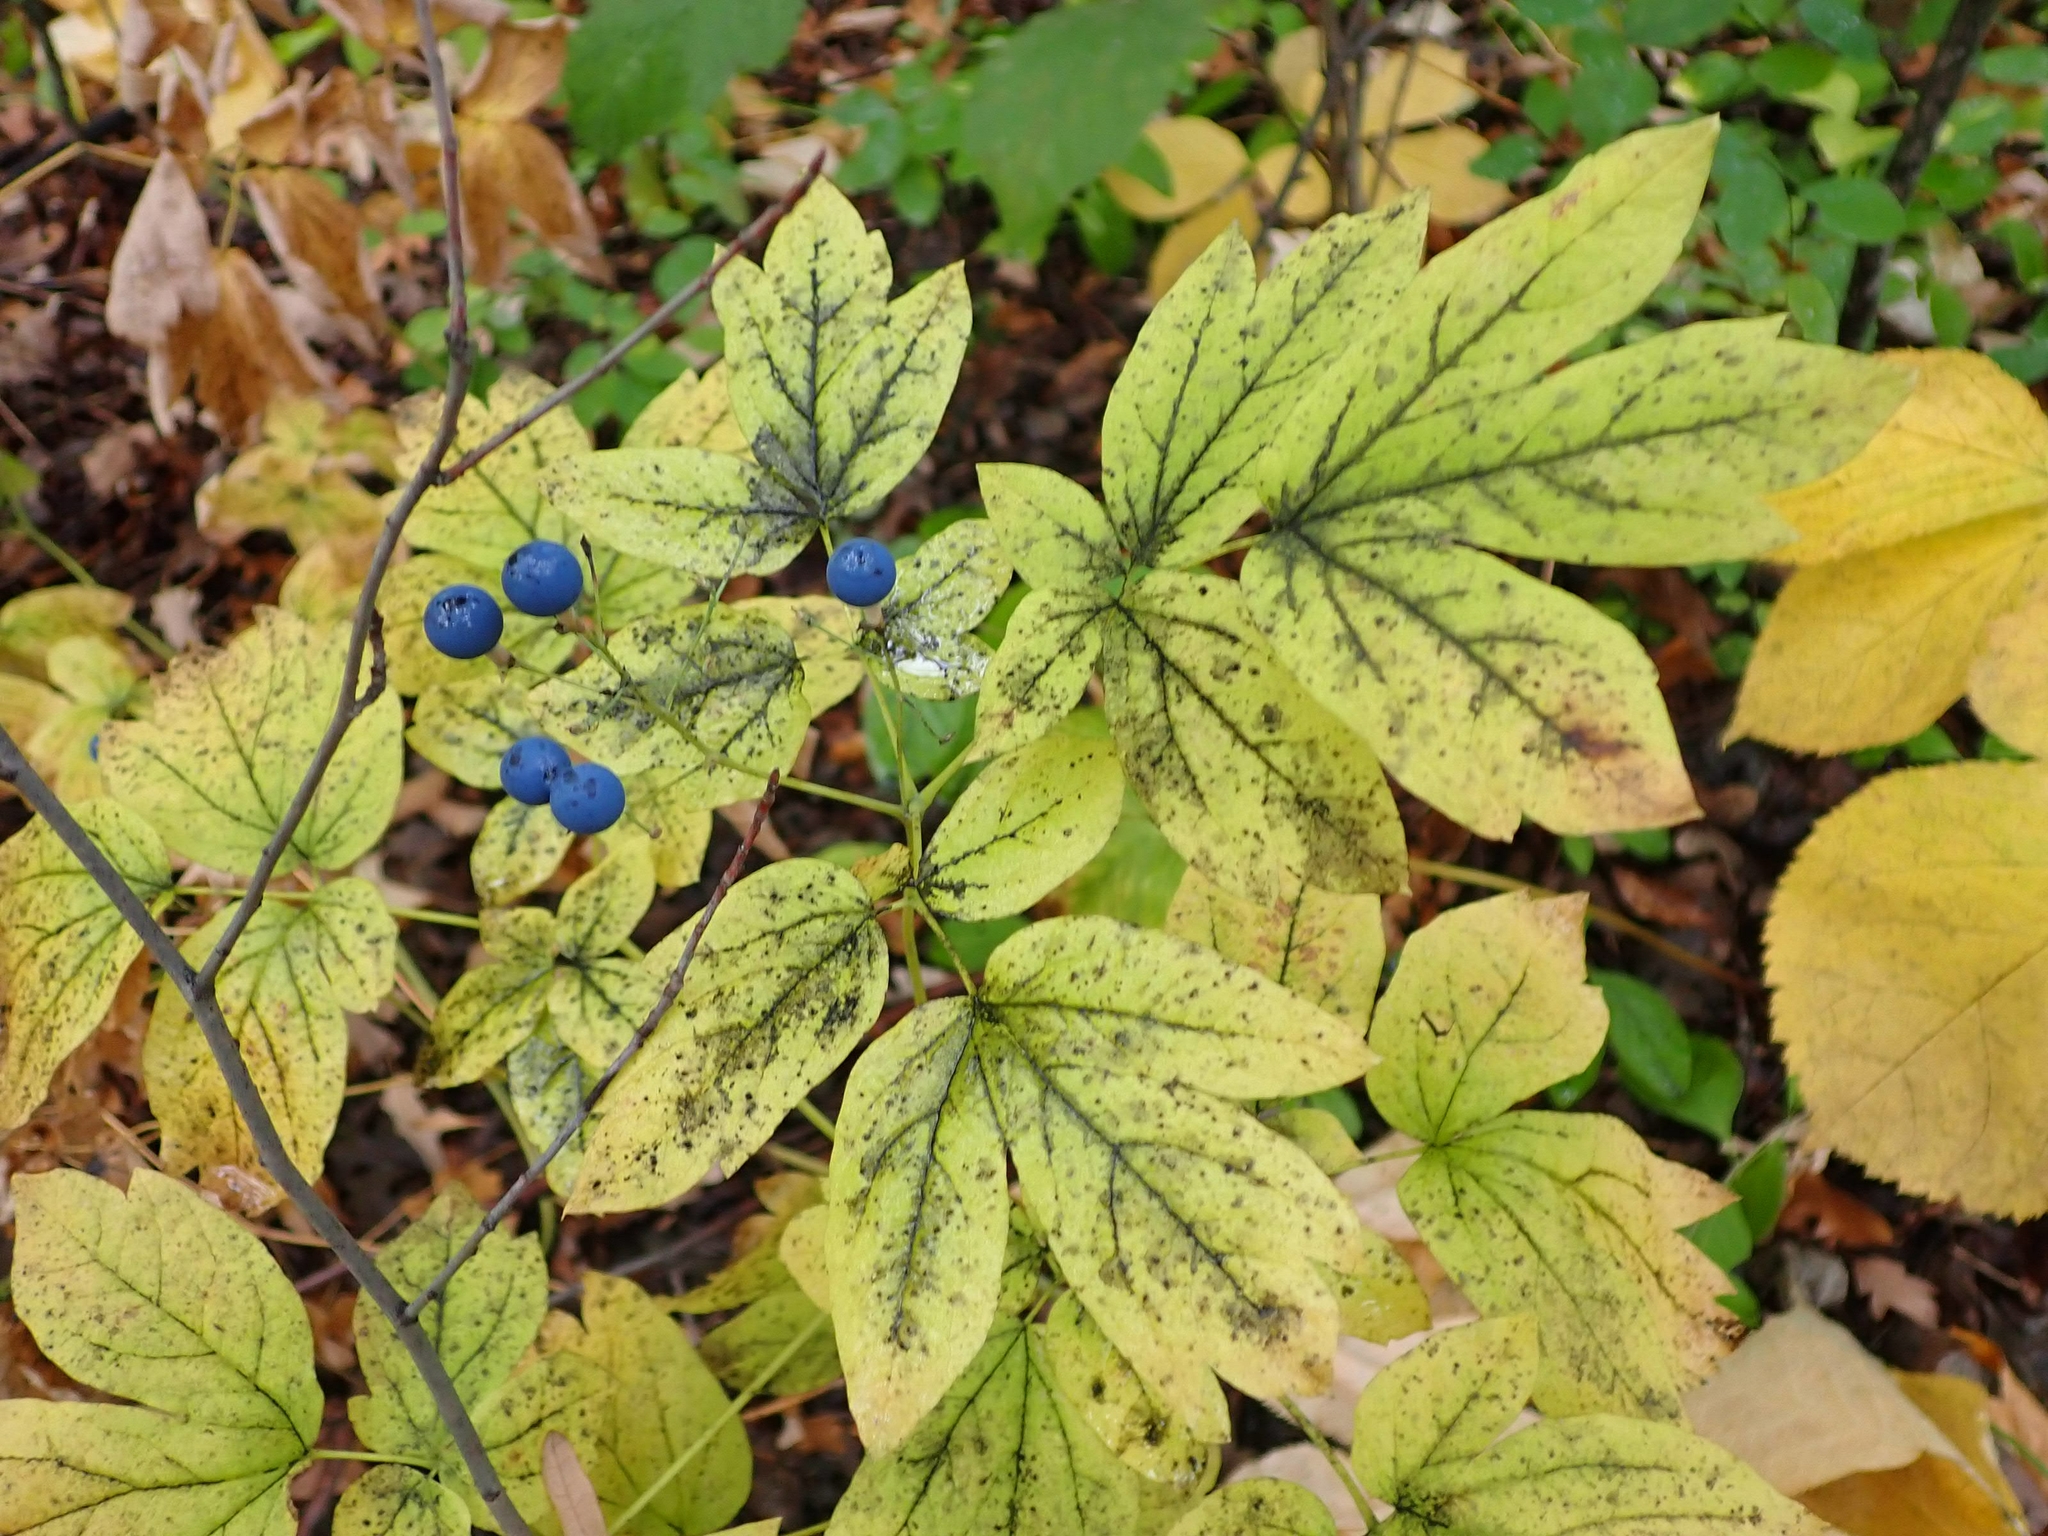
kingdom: Plantae
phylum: Tracheophyta
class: Magnoliopsida
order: Ranunculales
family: Berberidaceae
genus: Caulophyllum
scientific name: Caulophyllum thalictroides
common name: Blue cohosh
